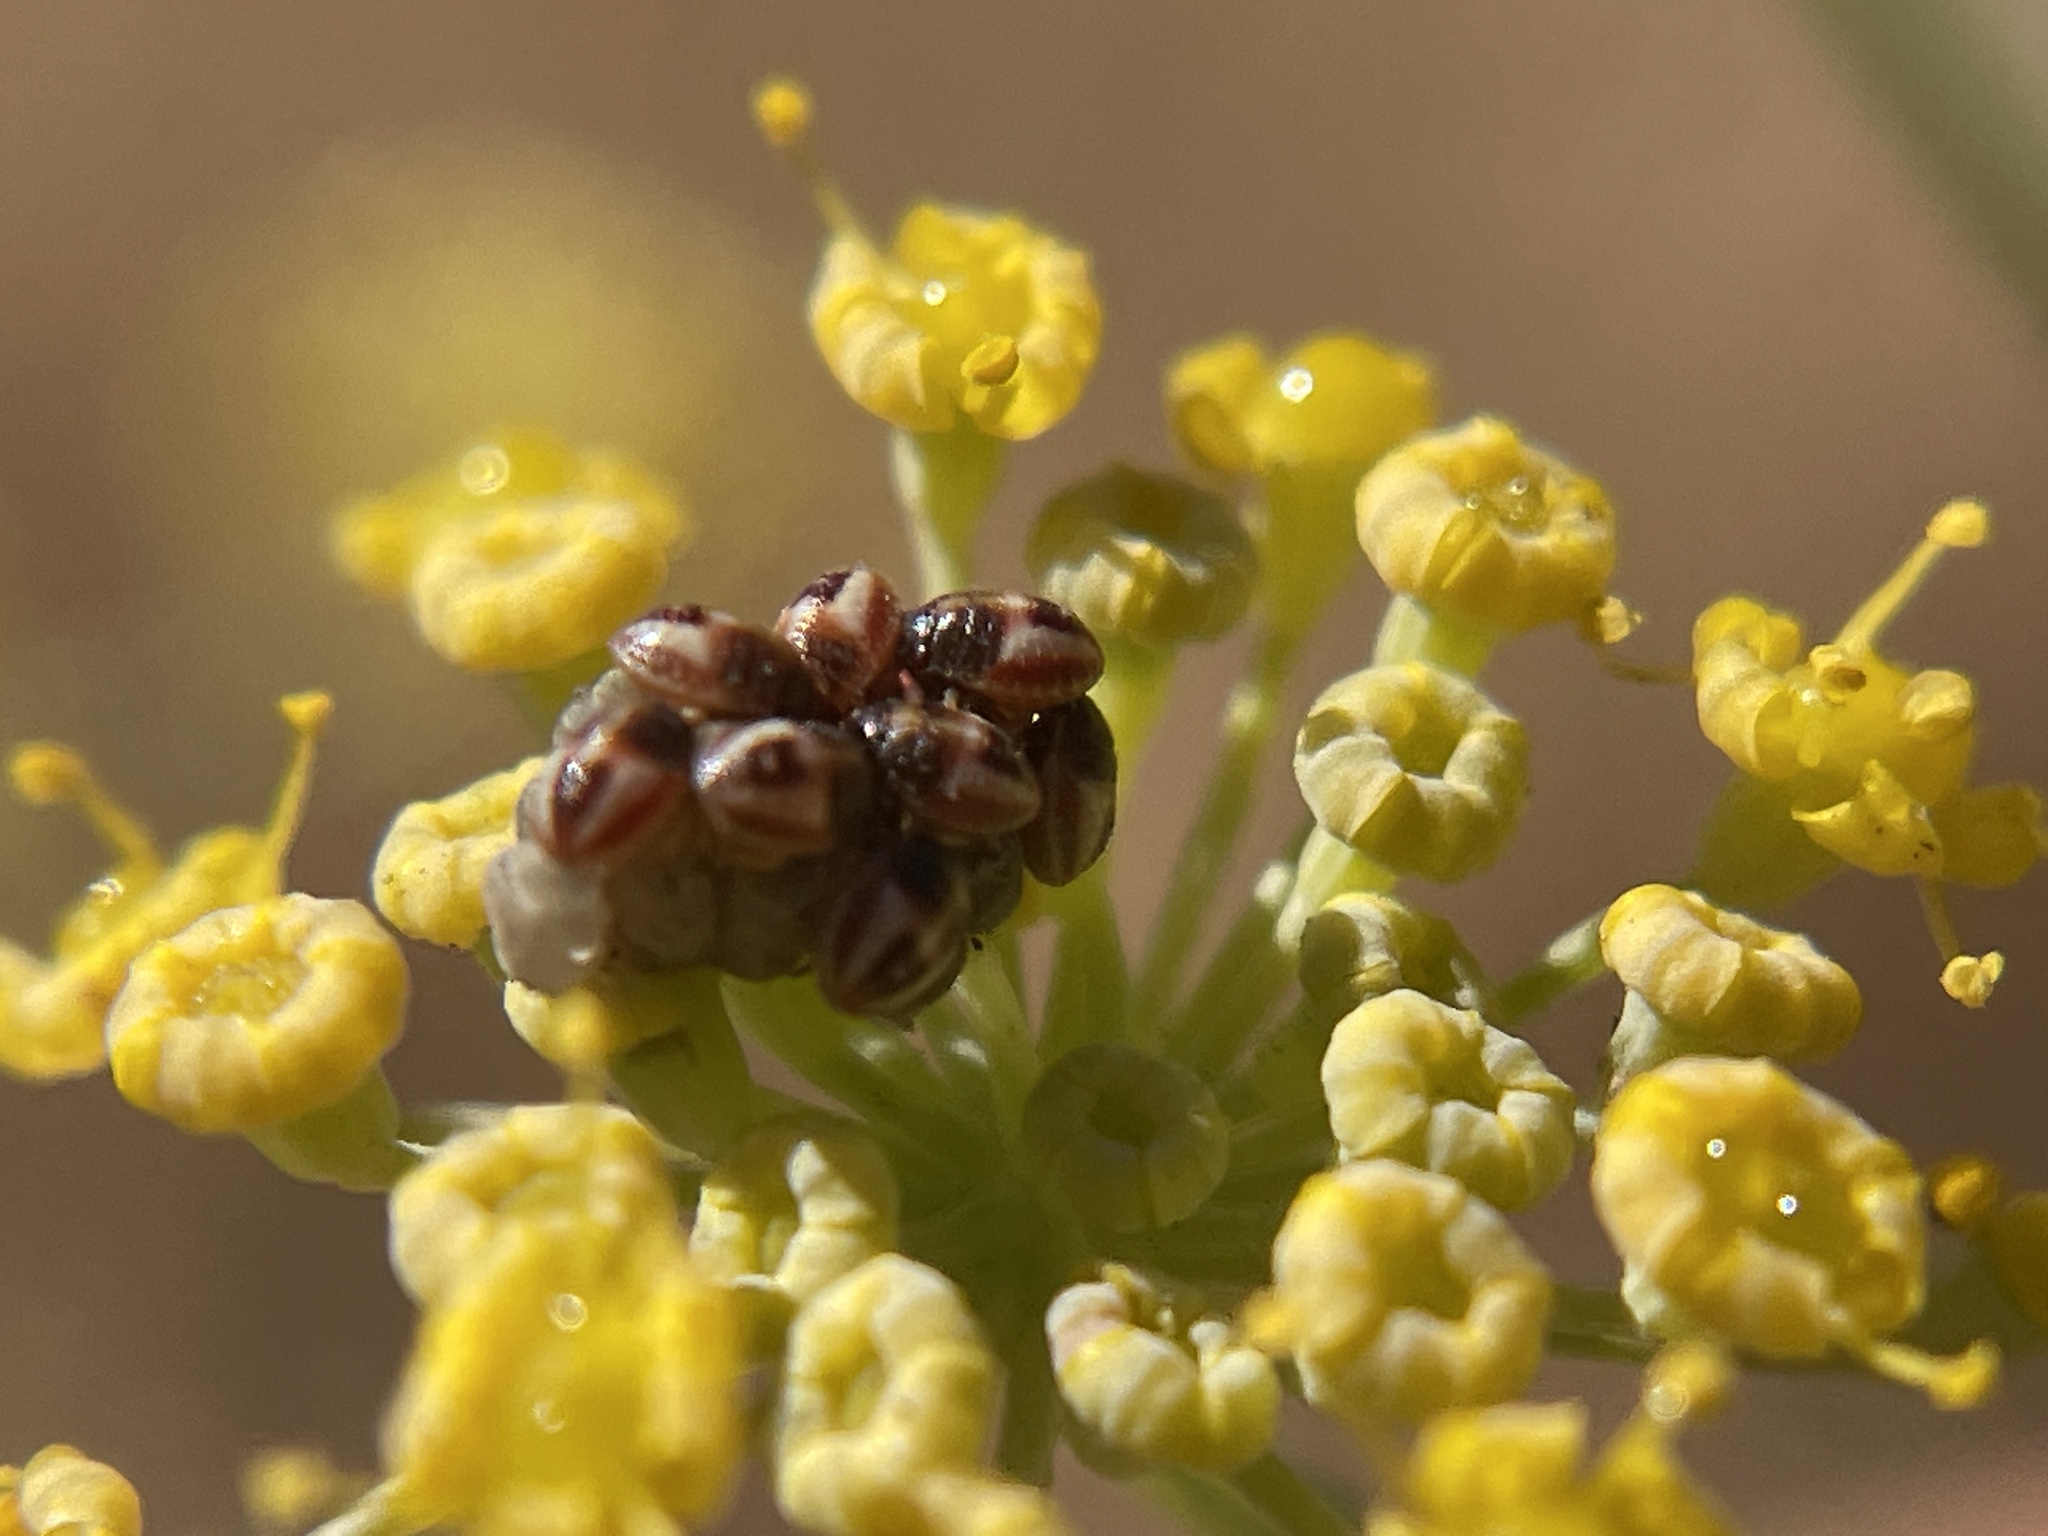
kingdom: Plantae
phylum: Tracheophyta
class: Magnoliopsida
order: Apiales
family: Apiaceae
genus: Foeniculum
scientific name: Foeniculum vulgare
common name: Fennel
